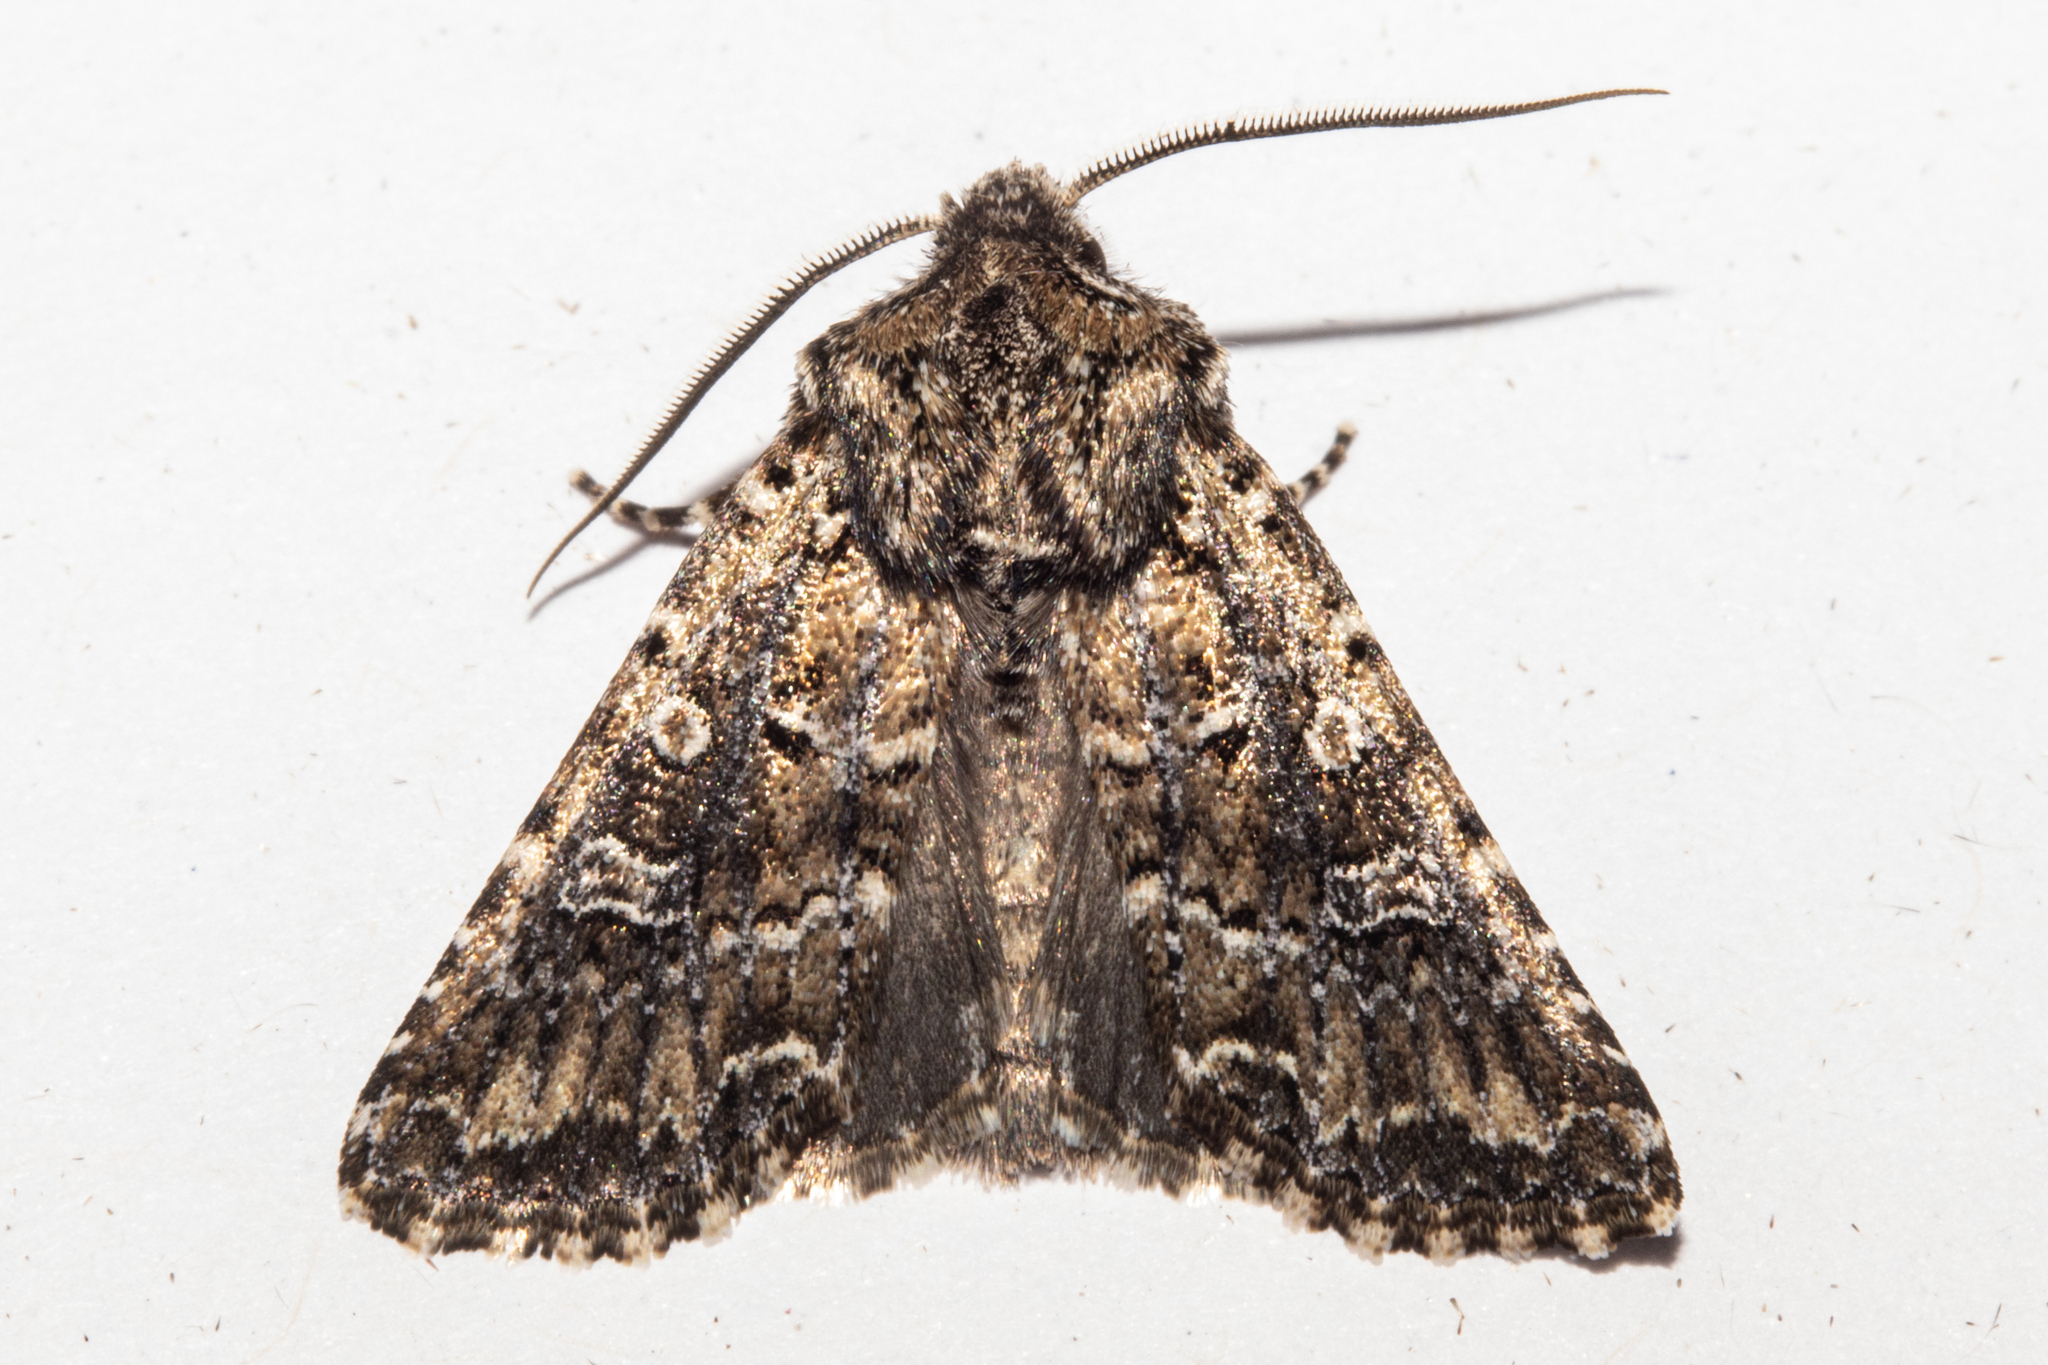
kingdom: Animalia
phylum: Arthropoda
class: Insecta
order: Lepidoptera
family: Noctuidae
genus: Ichneutica
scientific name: Ichneutica lithias
